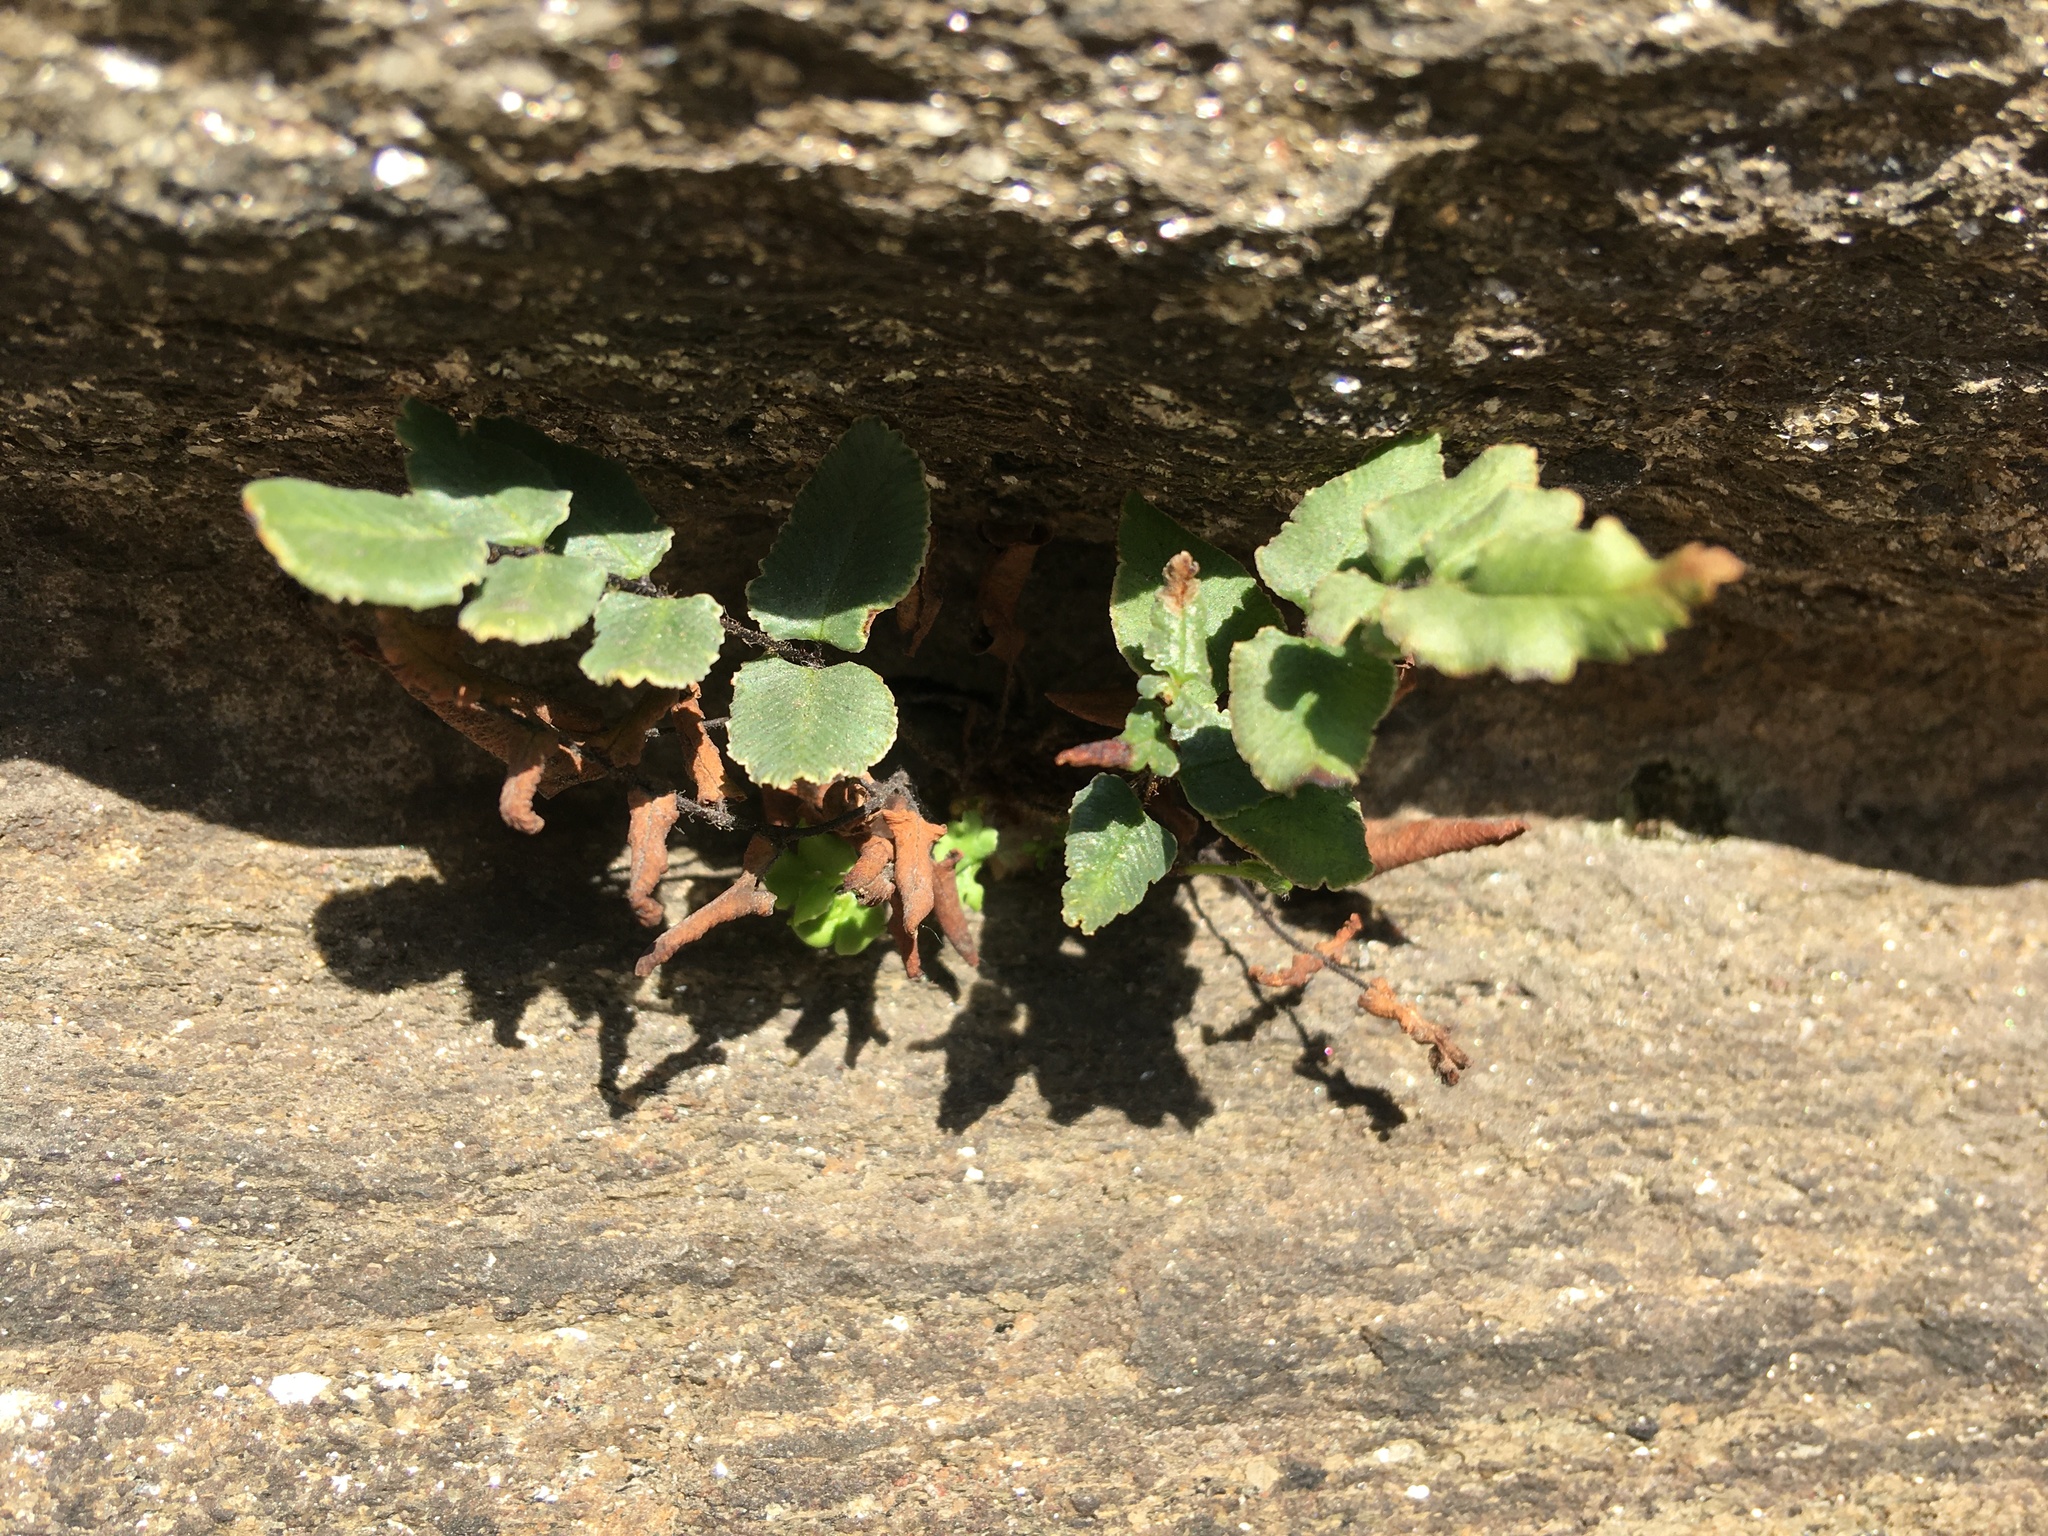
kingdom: Plantae
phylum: Tracheophyta
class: Polypodiopsida
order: Polypodiales
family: Pteridaceae
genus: Pellaea
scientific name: Pellaea atropurpurea
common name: Hairy cliffbrake
